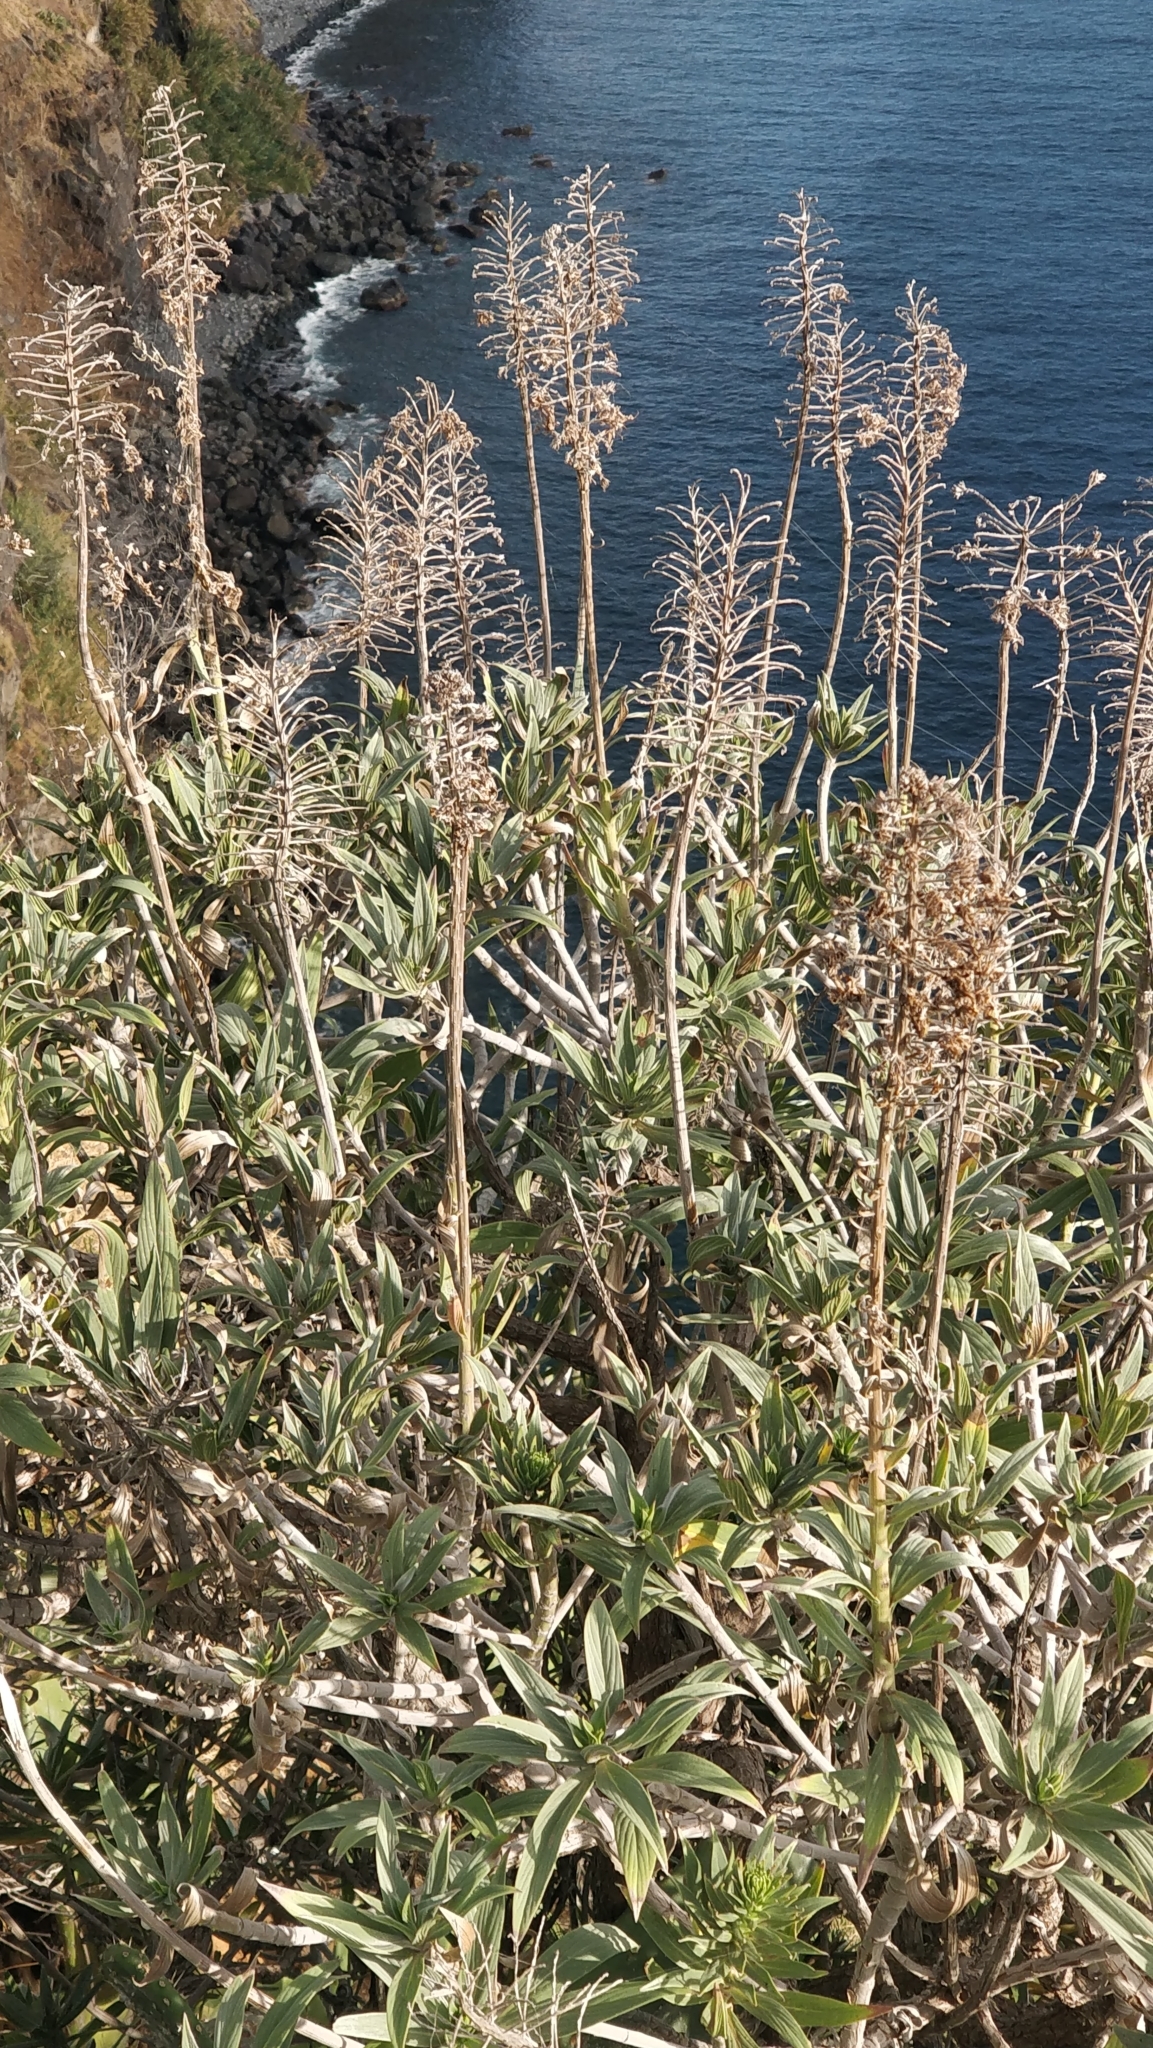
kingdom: Plantae
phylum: Tracheophyta
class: Magnoliopsida
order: Boraginales
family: Boraginaceae
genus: Echium
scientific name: Echium nervosum
